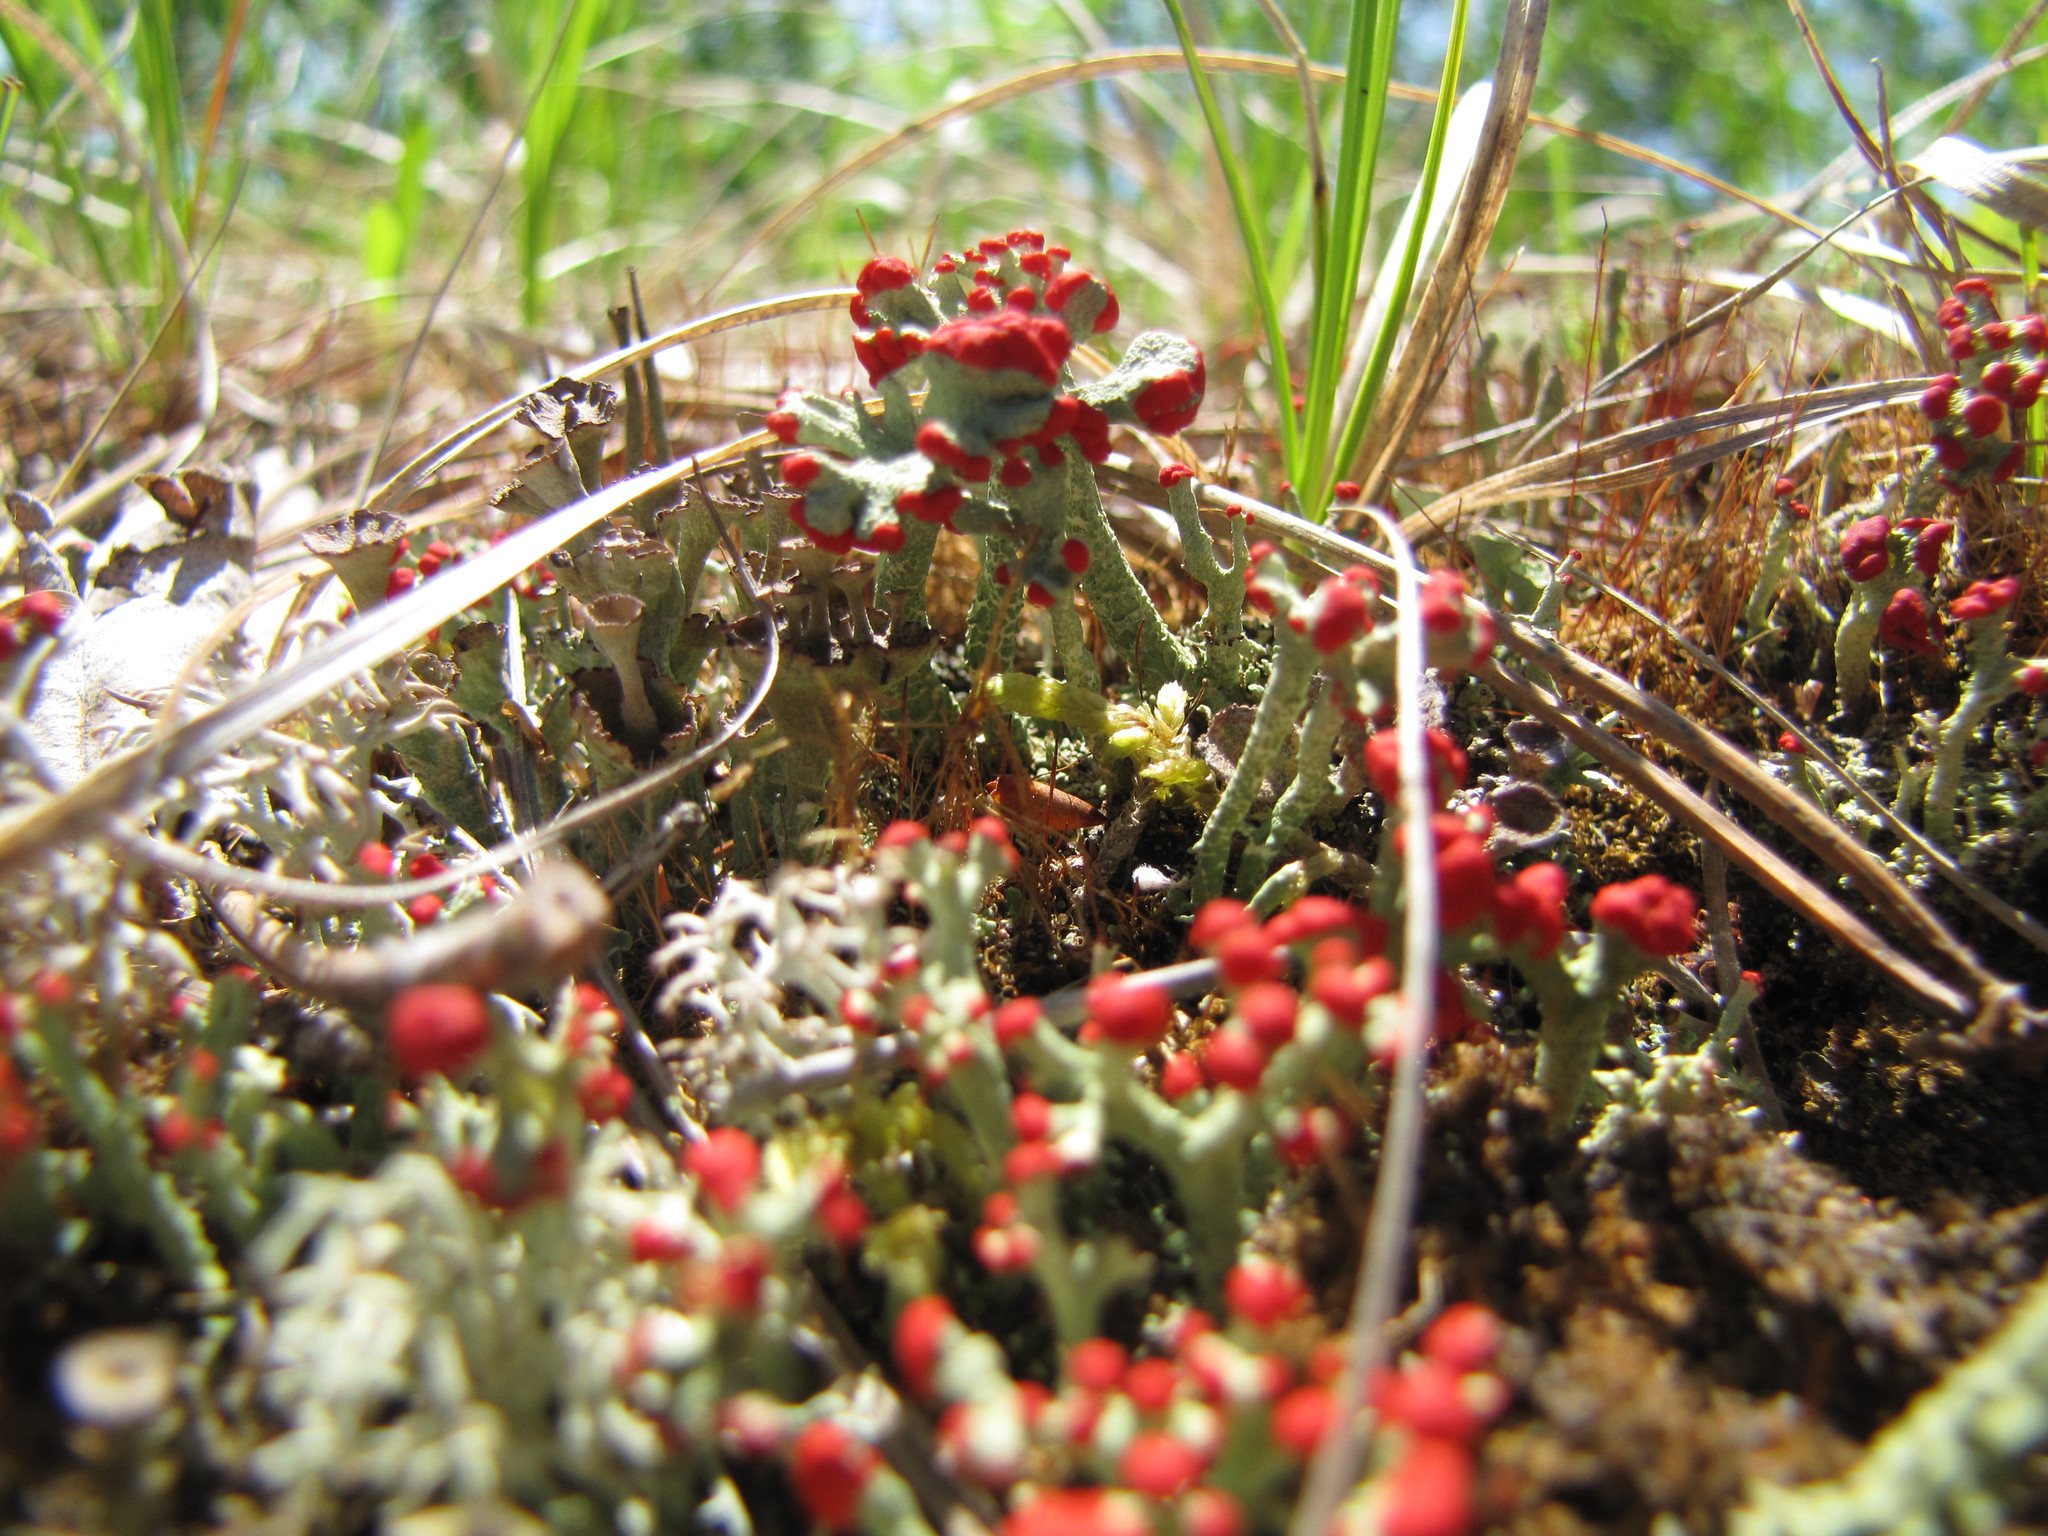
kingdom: Fungi
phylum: Ascomycota
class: Lecanoromycetes
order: Lecanorales
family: Cladoniaceae
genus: Cladonia
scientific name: Cladonia cristatella
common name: British soldier lichen
